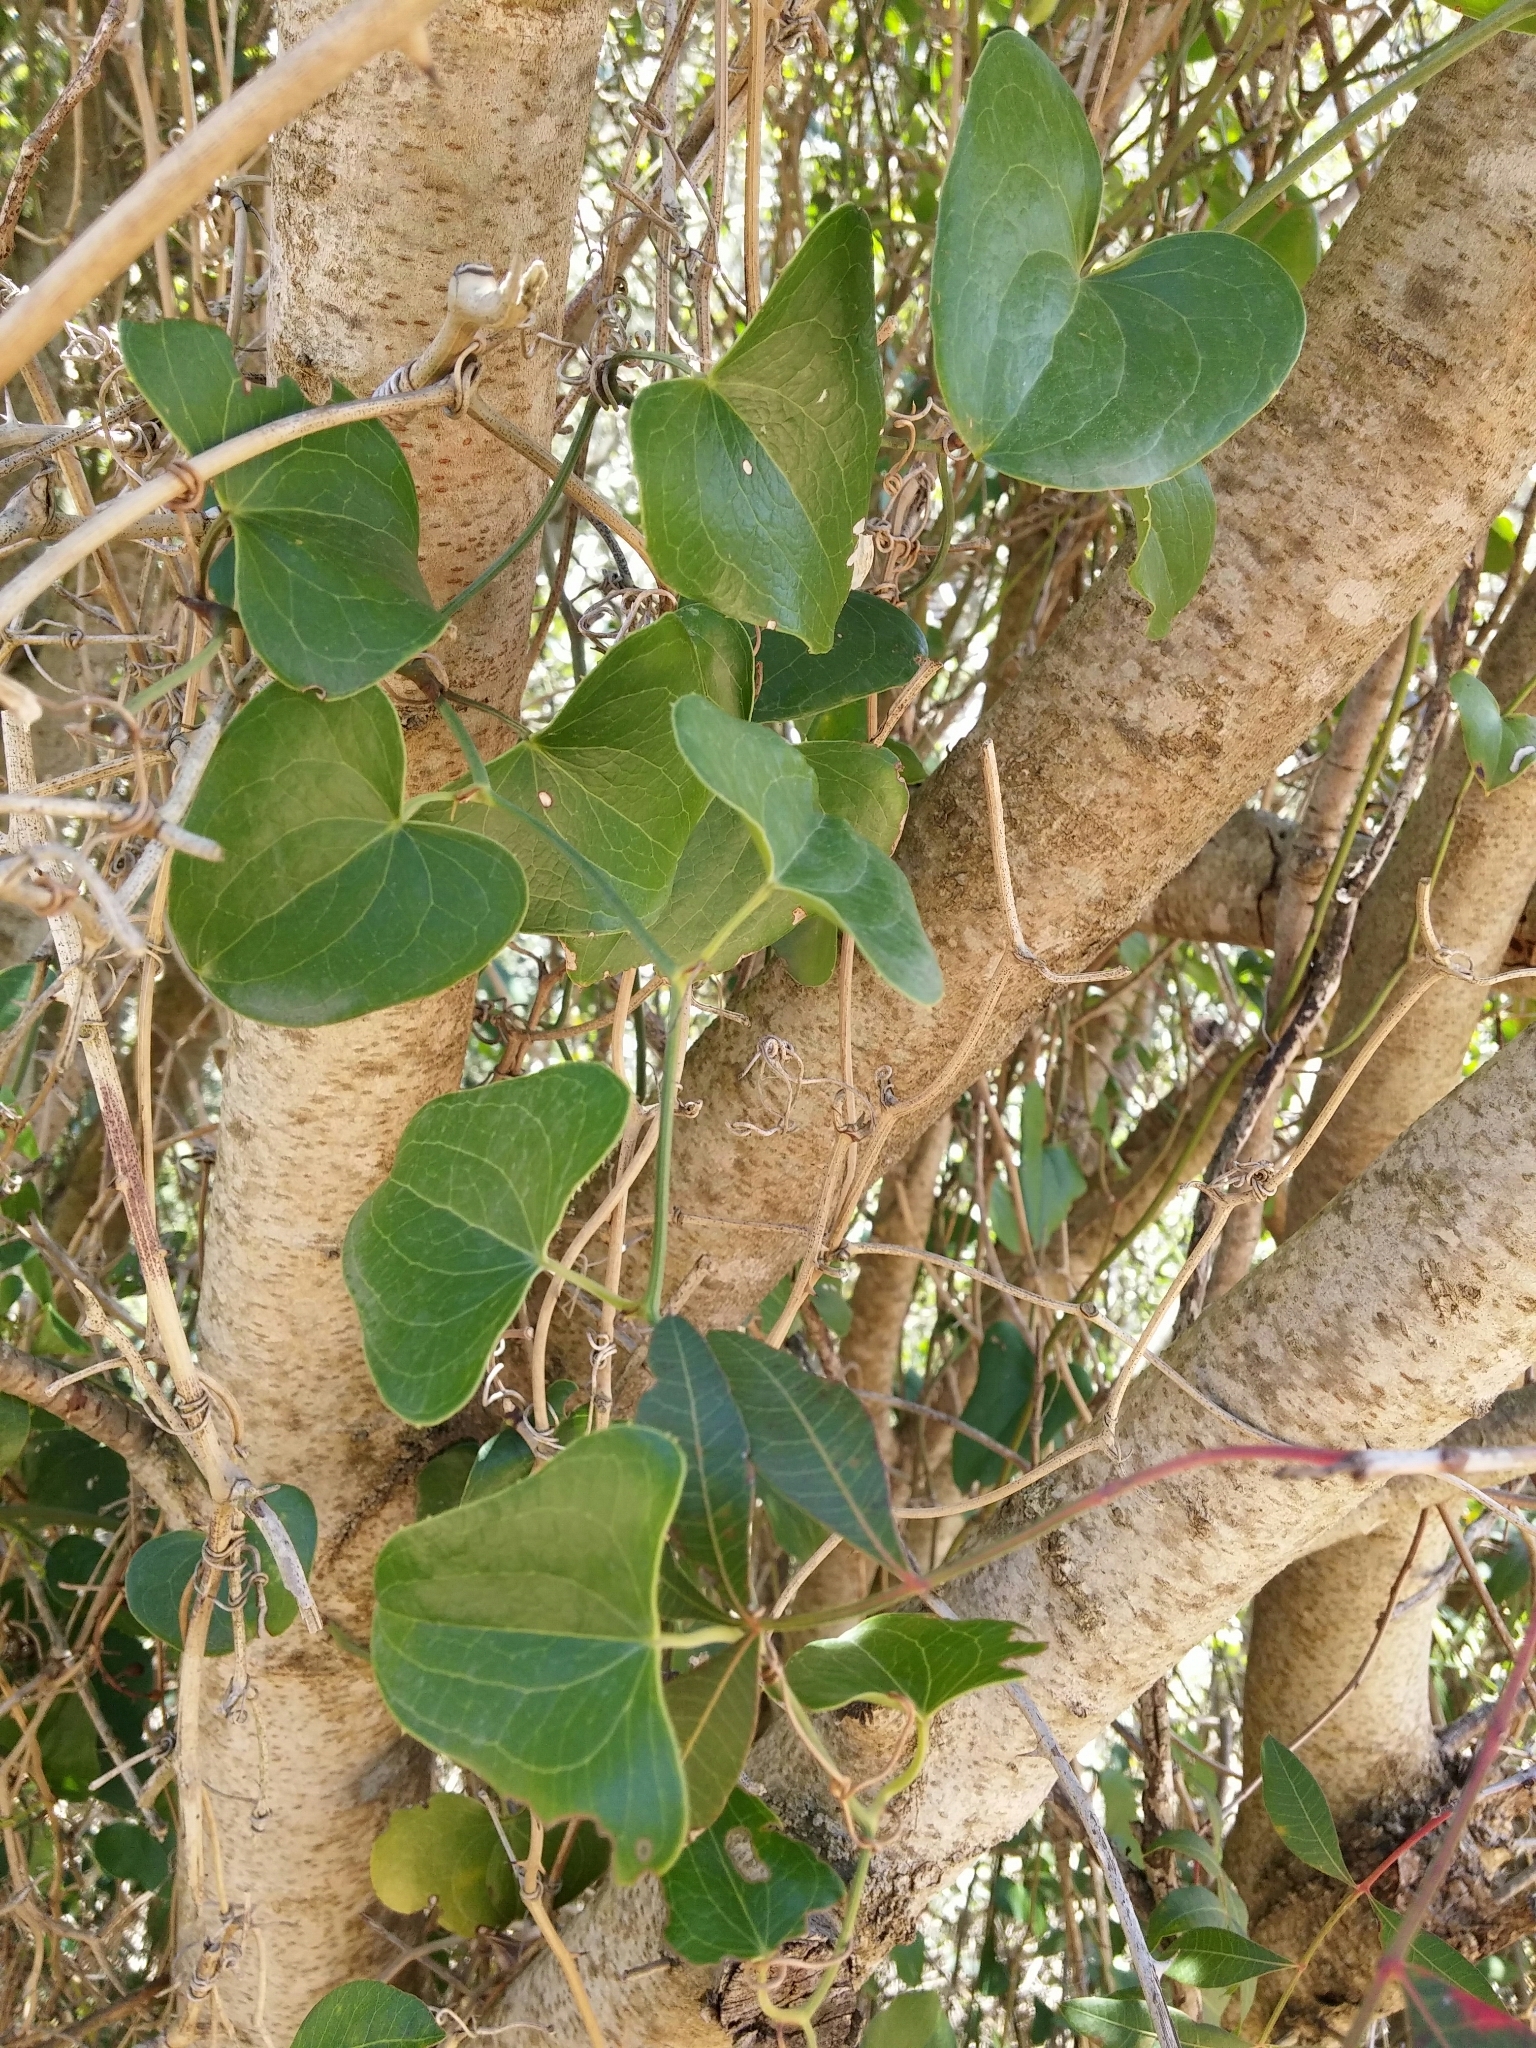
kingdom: Plantae
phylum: Tracheophyta
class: Liliopsida
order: Liliales
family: Smilacaceae
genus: Smilax
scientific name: Smilax aspera
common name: Common smilax
